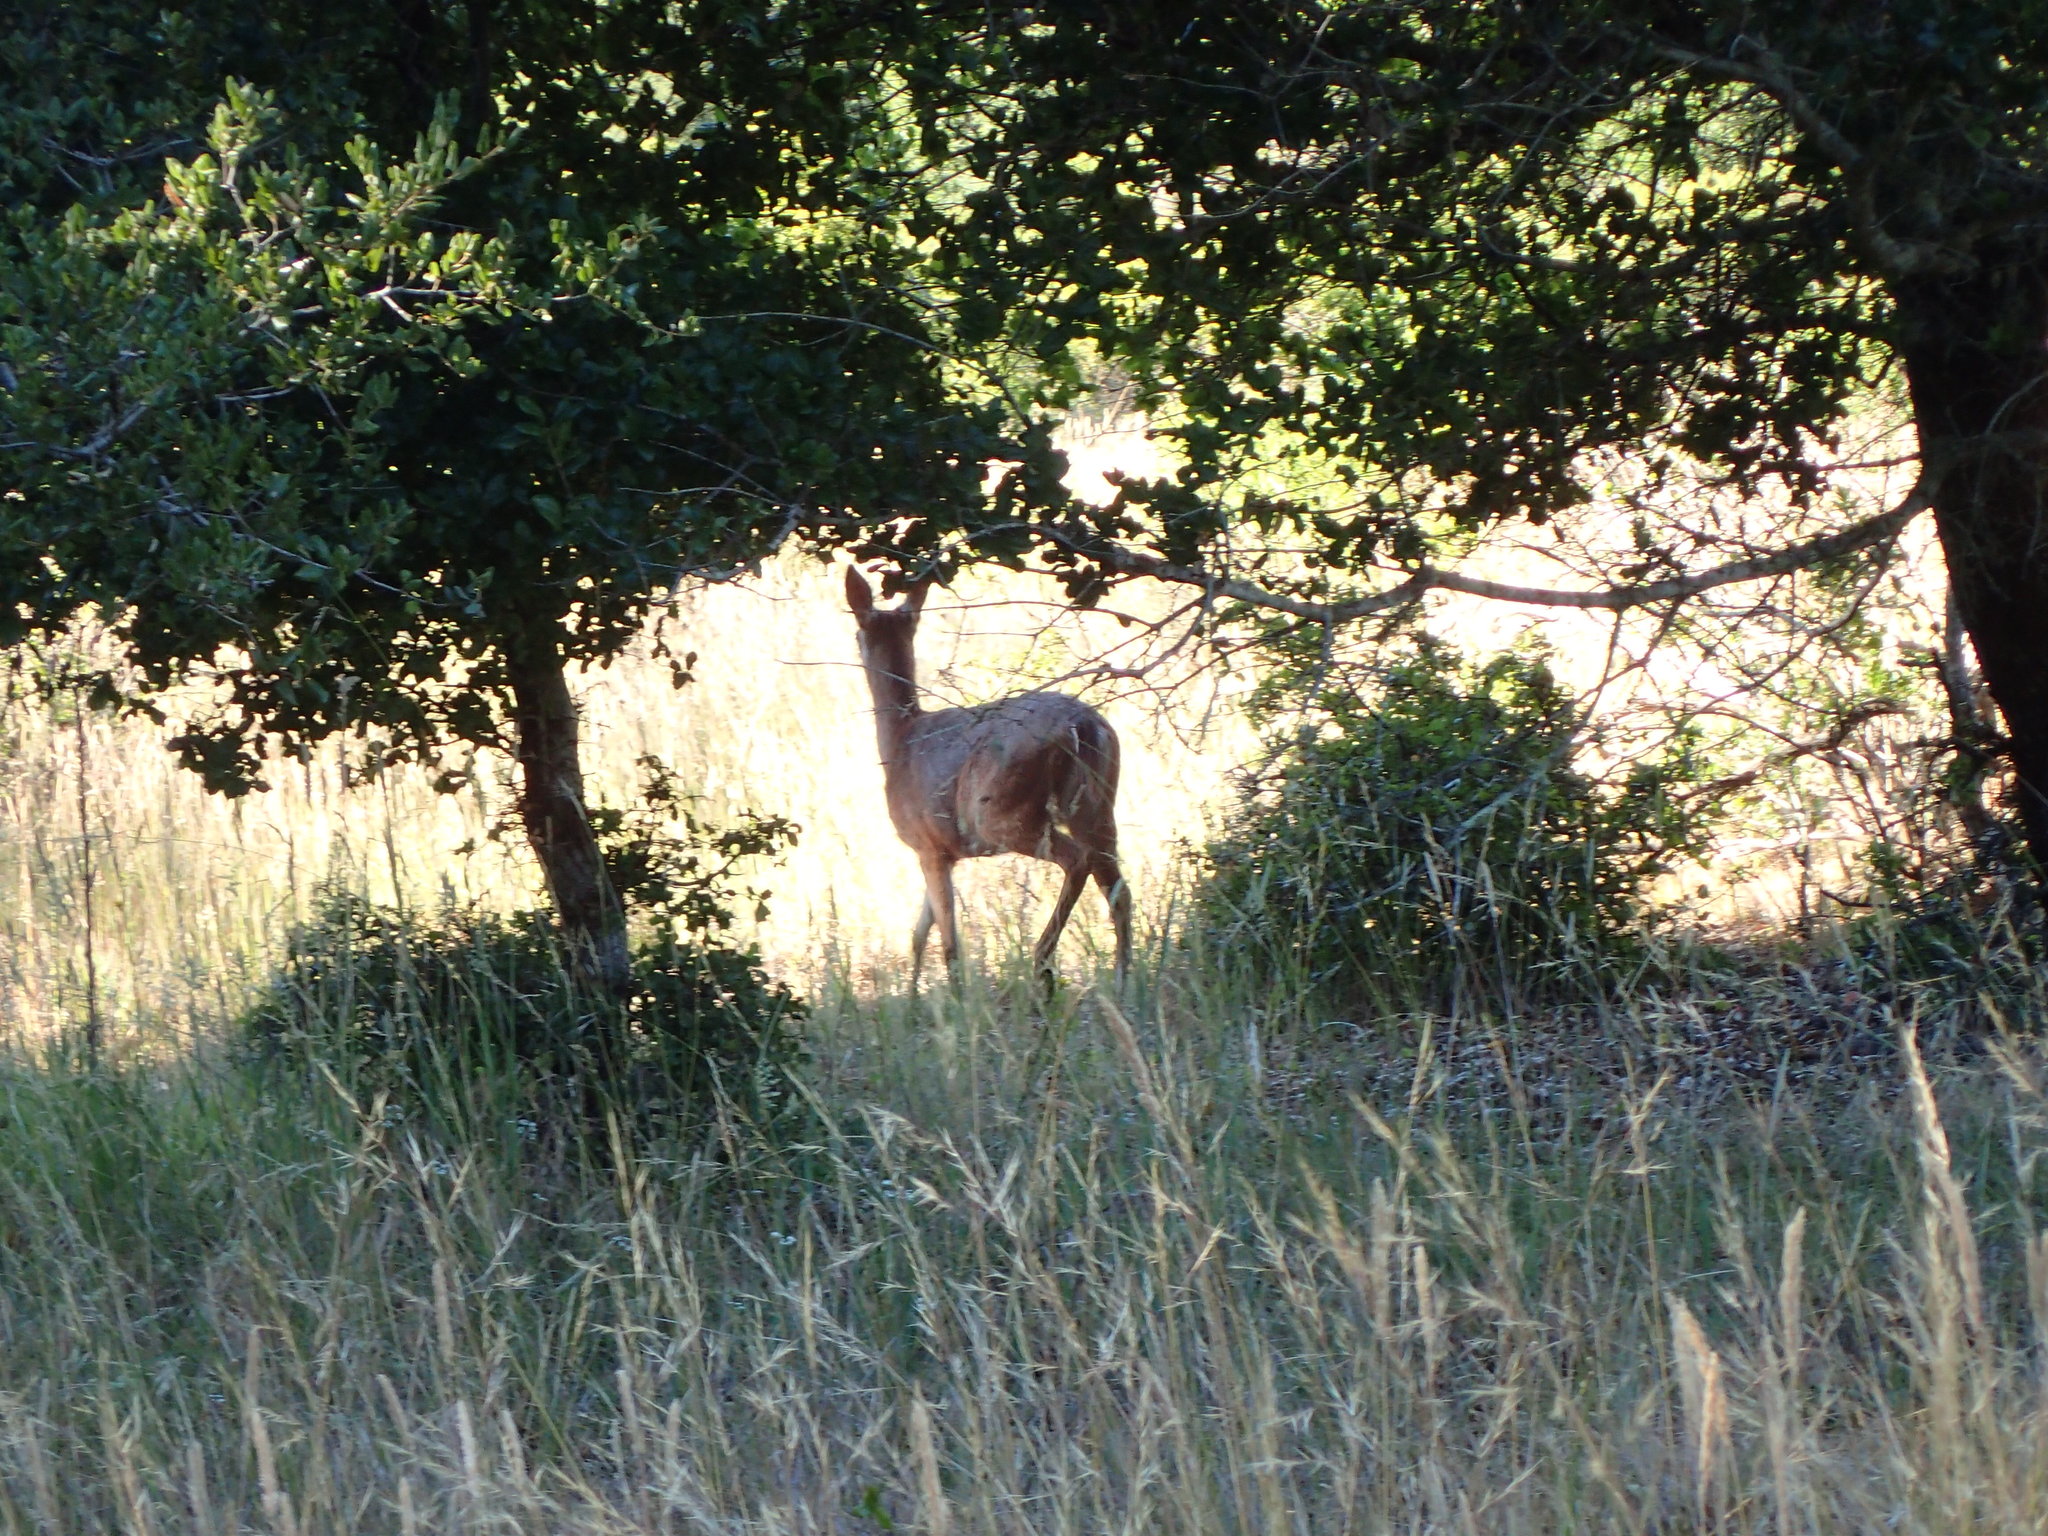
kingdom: Animalia
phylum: Chordata
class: Mammalia
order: Artiodactyla
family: Cervidae
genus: Odocoileus
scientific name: Odocoileus hemionus
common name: Mule deer
